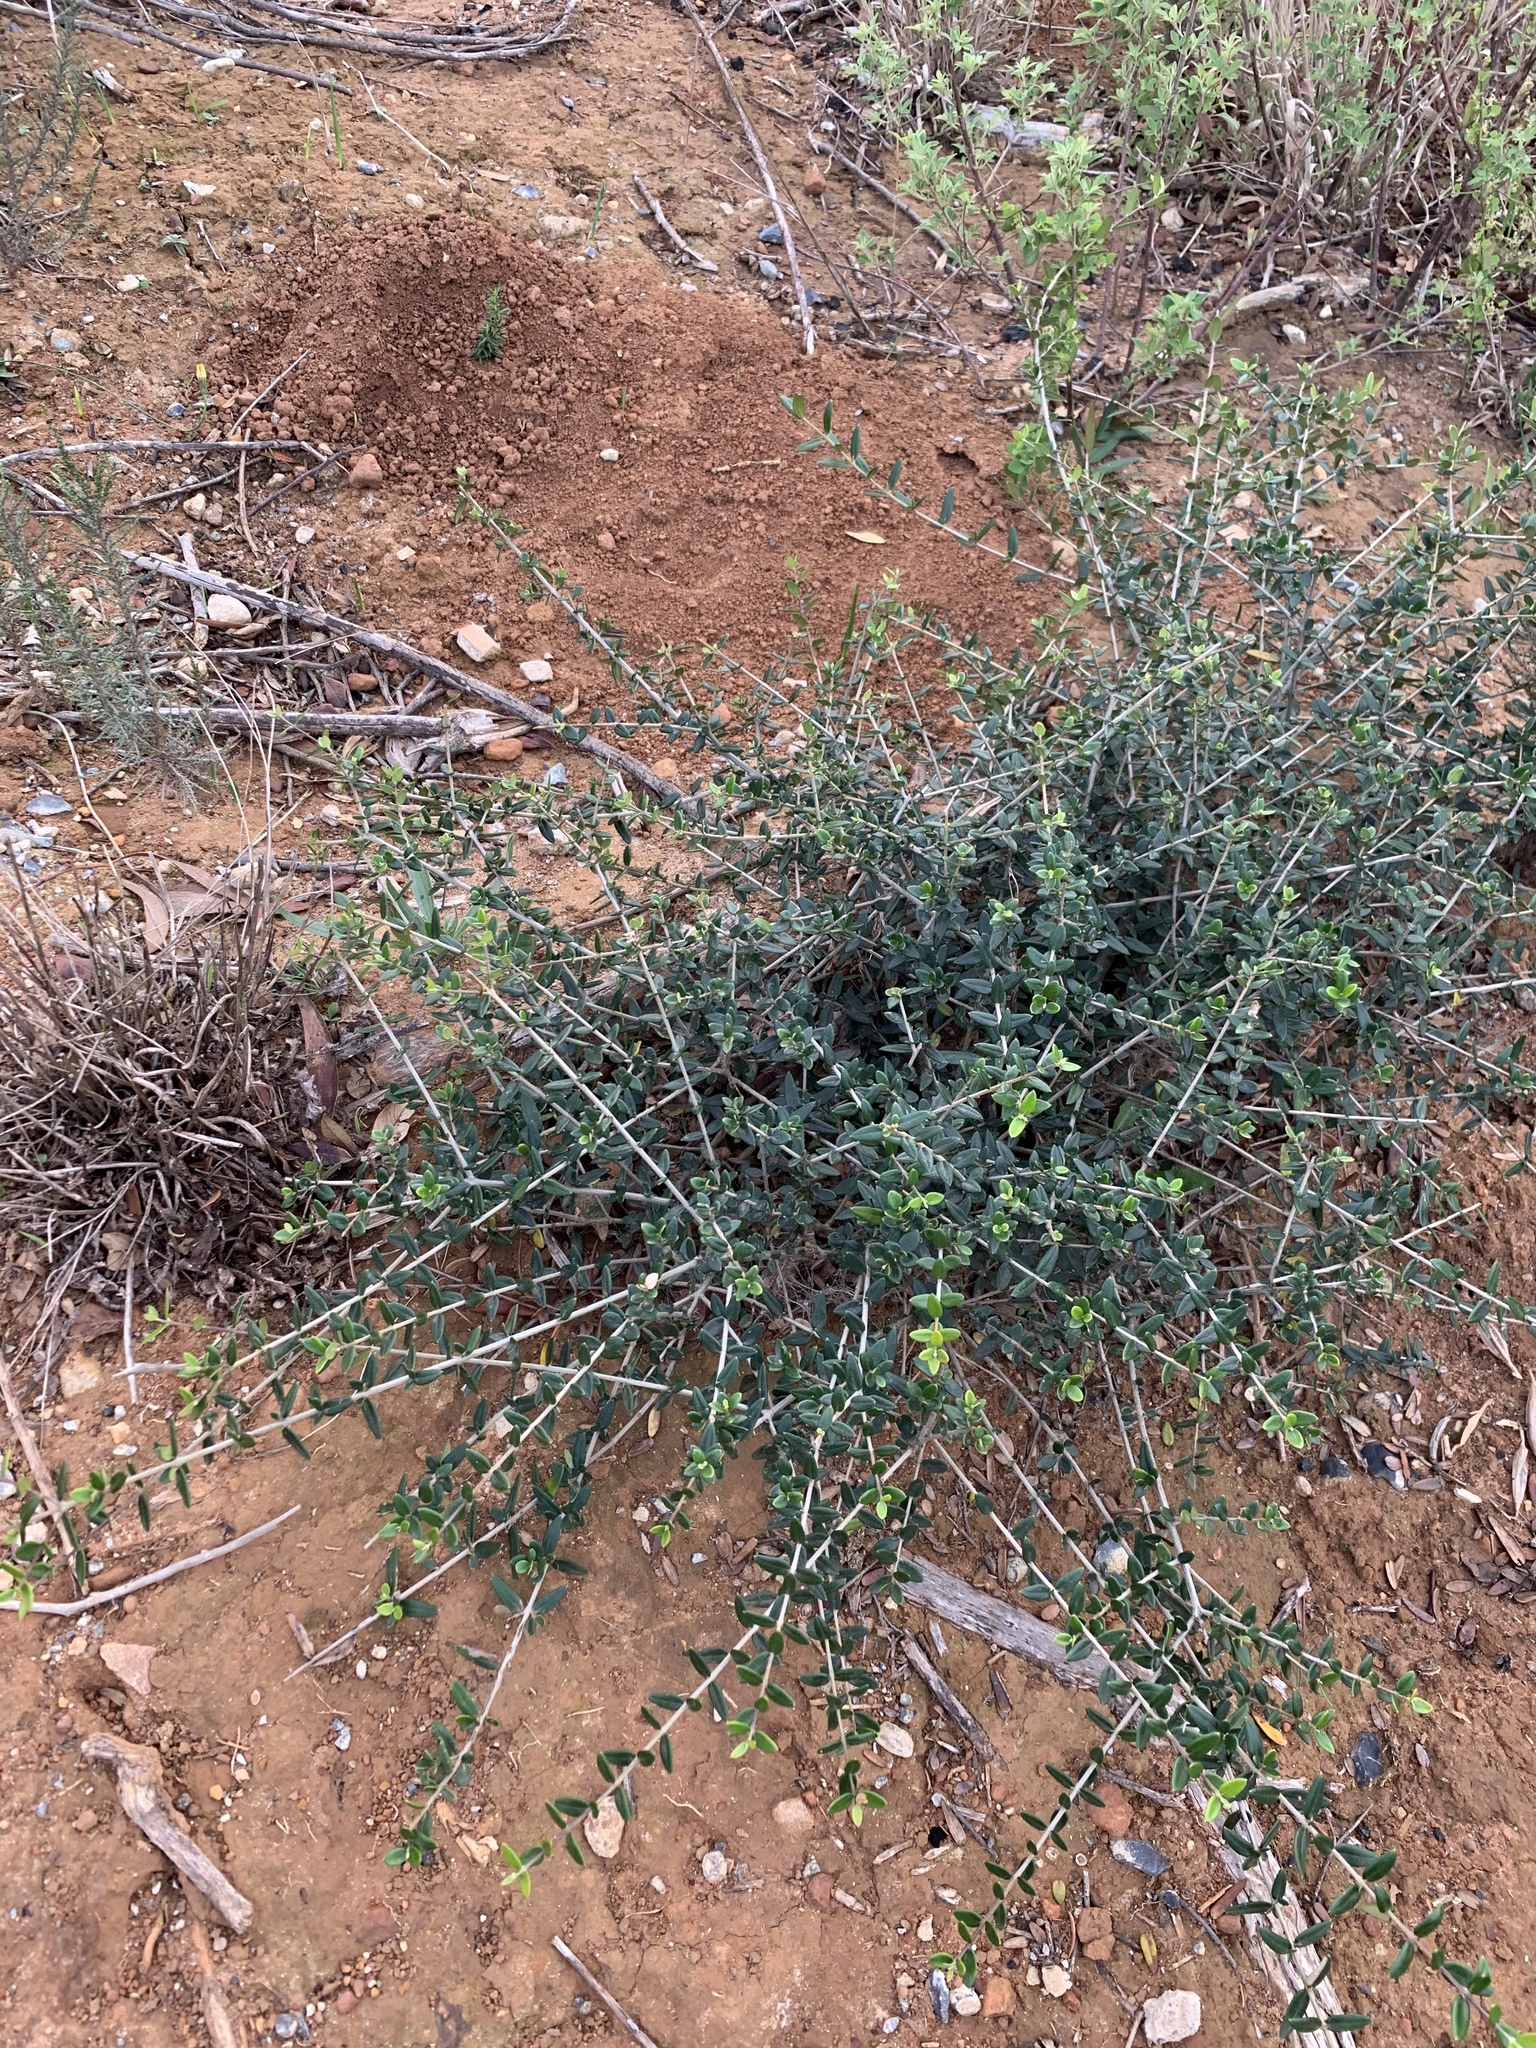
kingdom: Plantae
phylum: Tracheophyta
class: Magnoliopsida
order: Lamiales
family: Oleaceae
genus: Olea
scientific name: Olea europaea
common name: Olive
